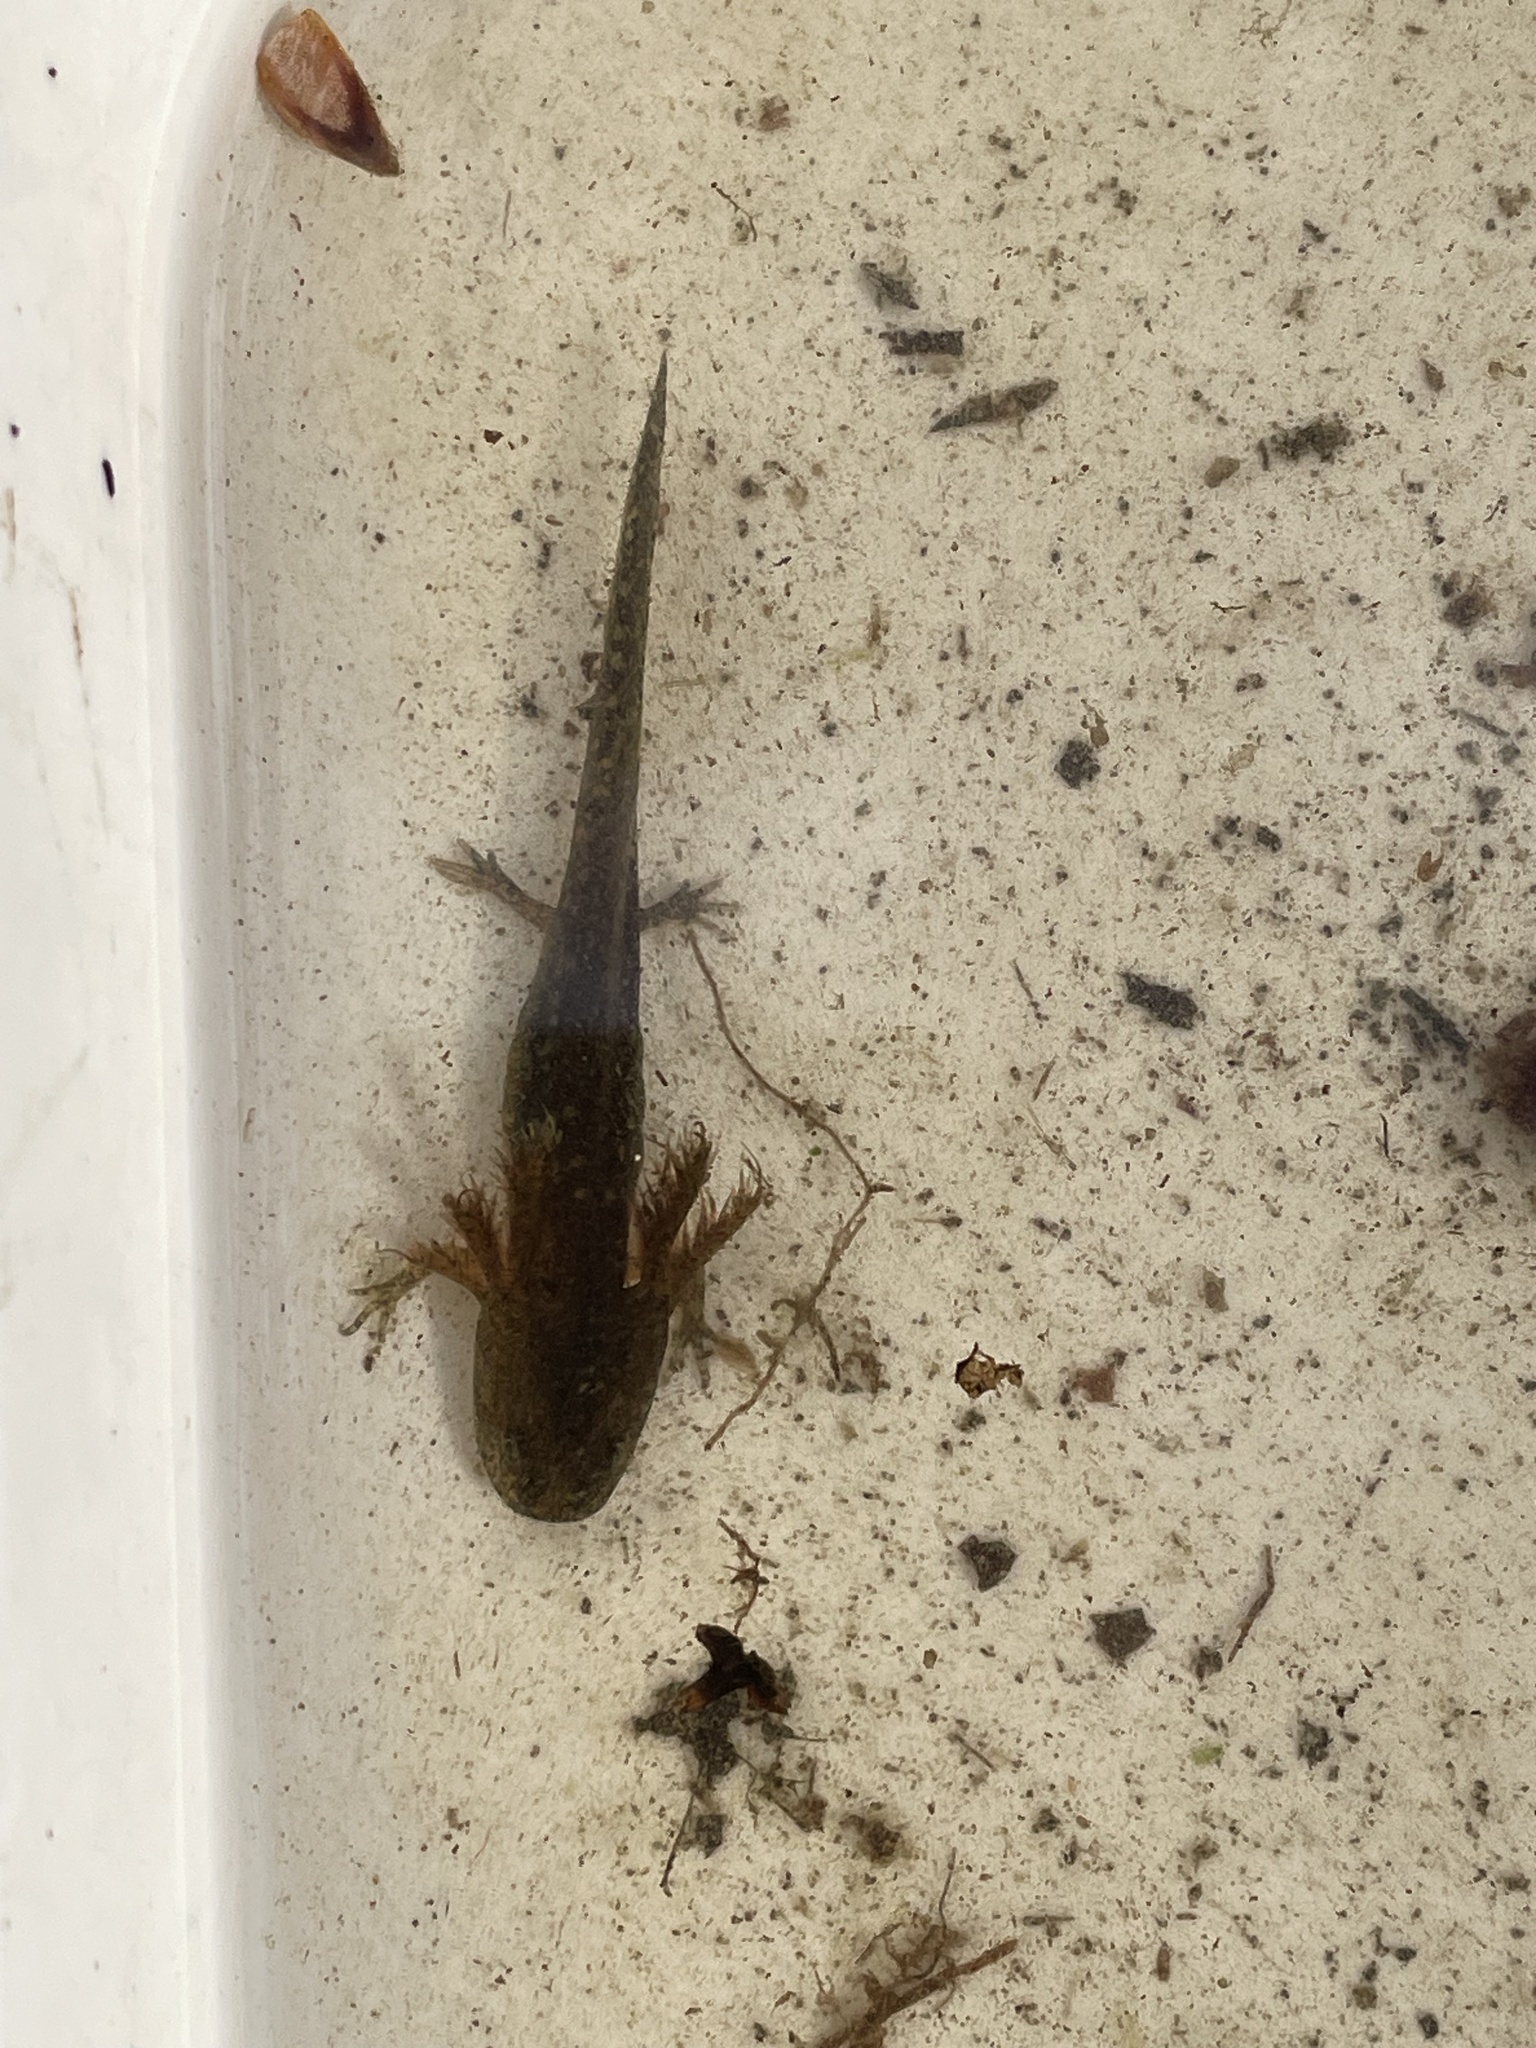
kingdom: Animalia
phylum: Chordata
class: Amphibia
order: Caudata
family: Ambystomatidae
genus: Ambystoma
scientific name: Ambystoma opacum
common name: Marbled salamander
